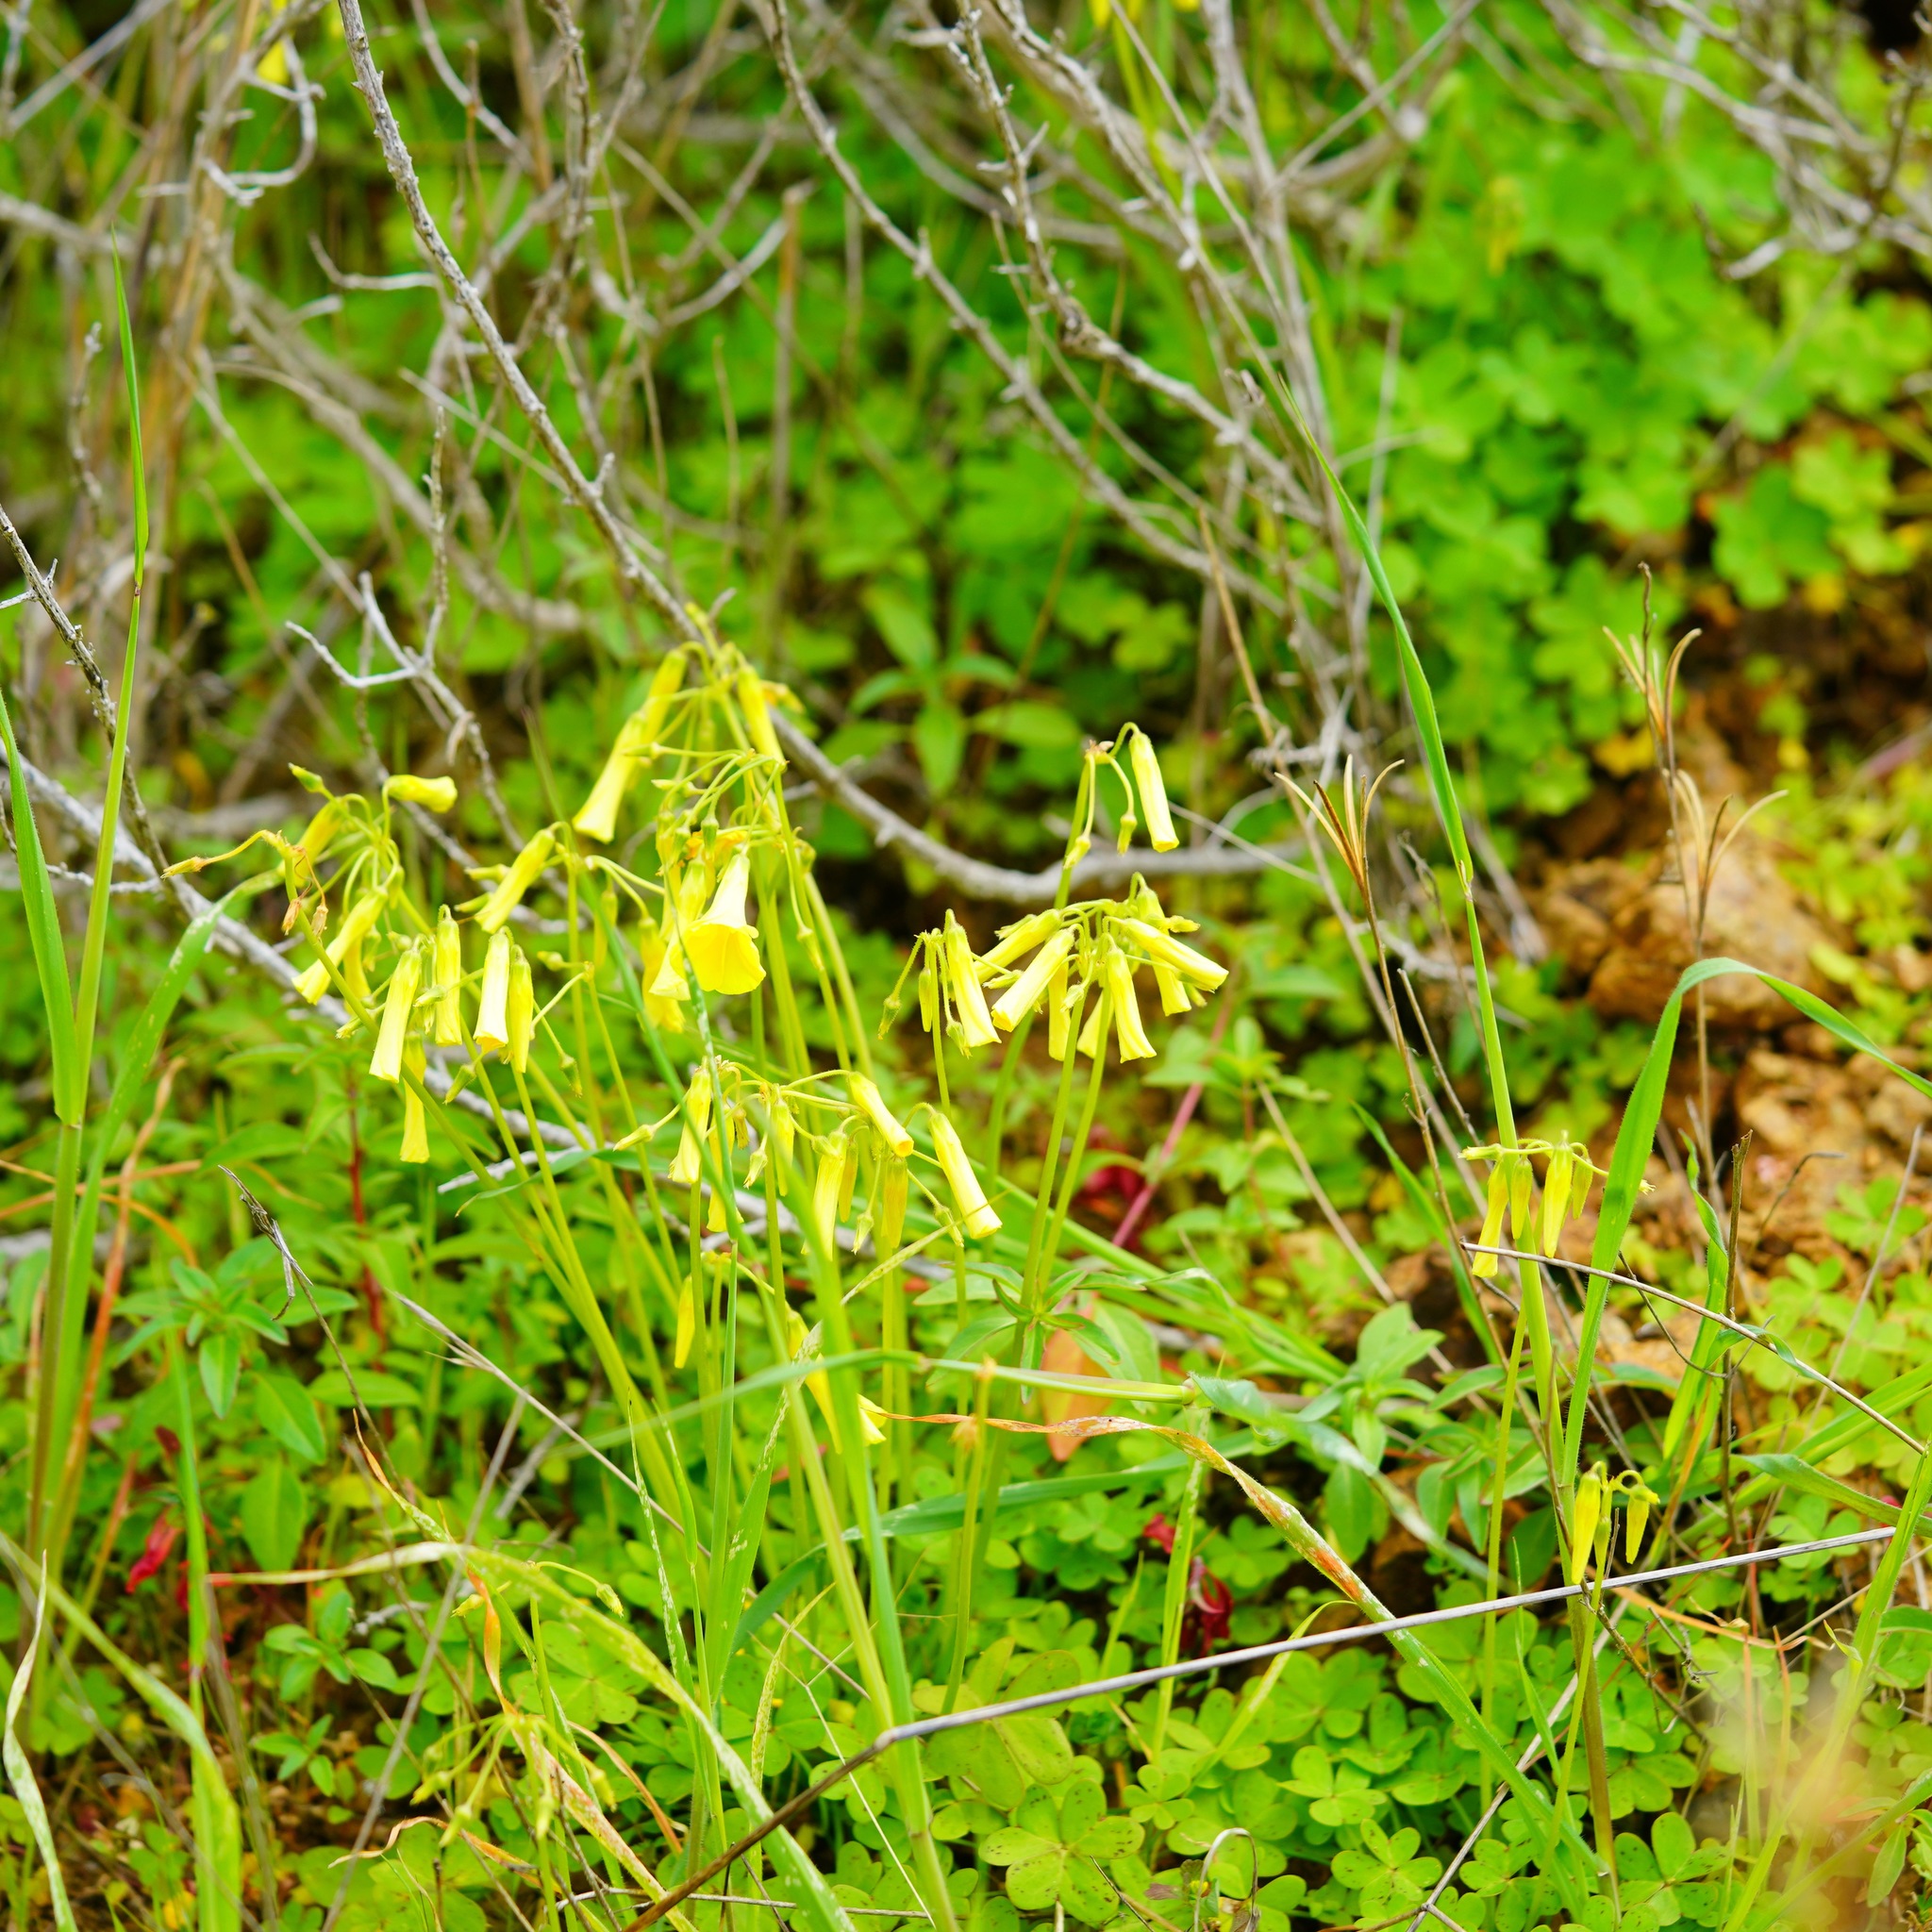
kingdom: Plantae
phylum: Tracheophyta
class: Magnoliopsida
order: Oxalidales
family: Oxalidaceae
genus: Oxalis
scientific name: Oxalis pes-caprae
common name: Bermuda-buttercup
